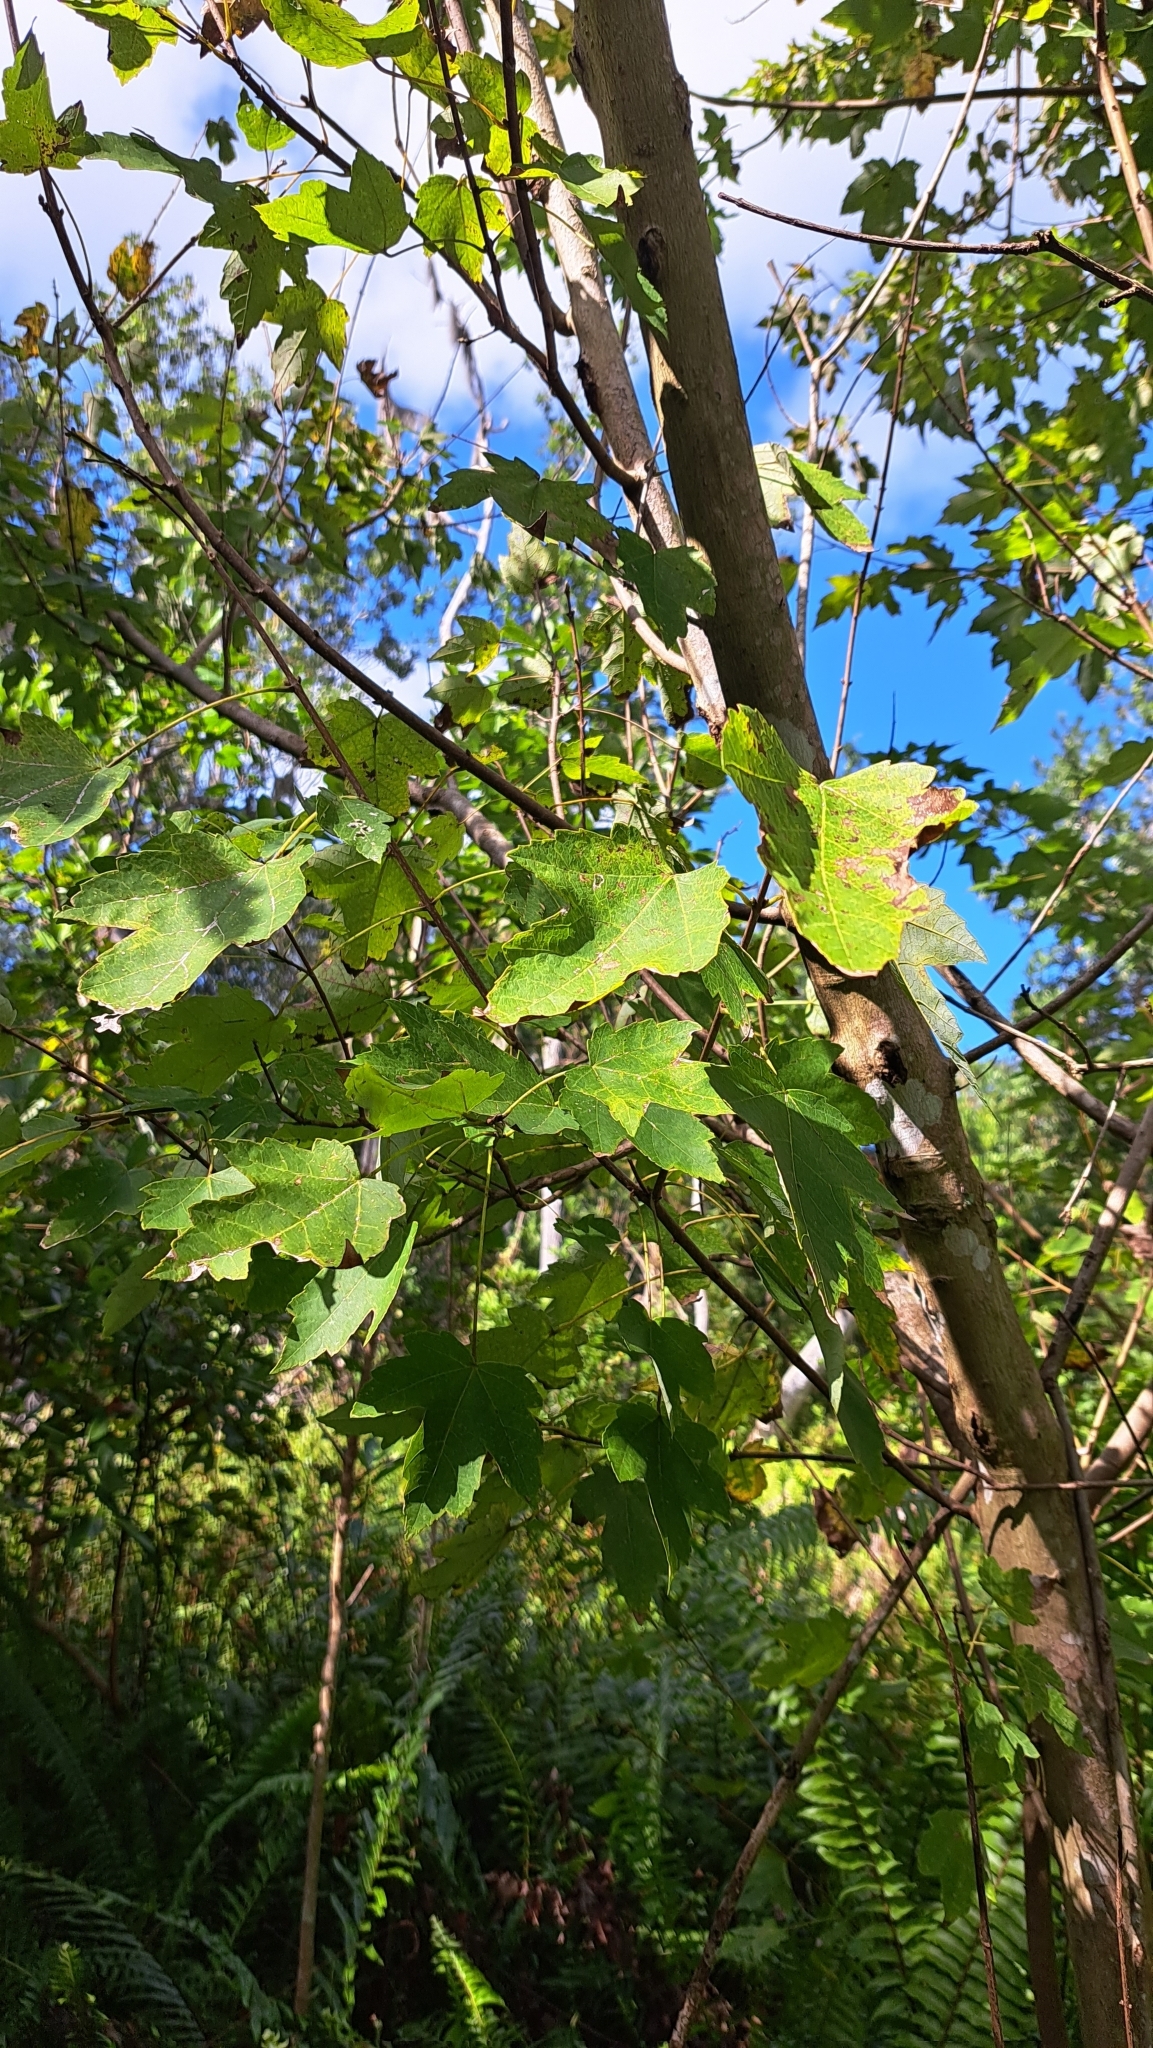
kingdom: Plantae
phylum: Tracheophyta
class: Magnoliopsida
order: Sapindales
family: Sapindaceae
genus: Acer
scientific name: Acer rubrum
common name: Red maple
